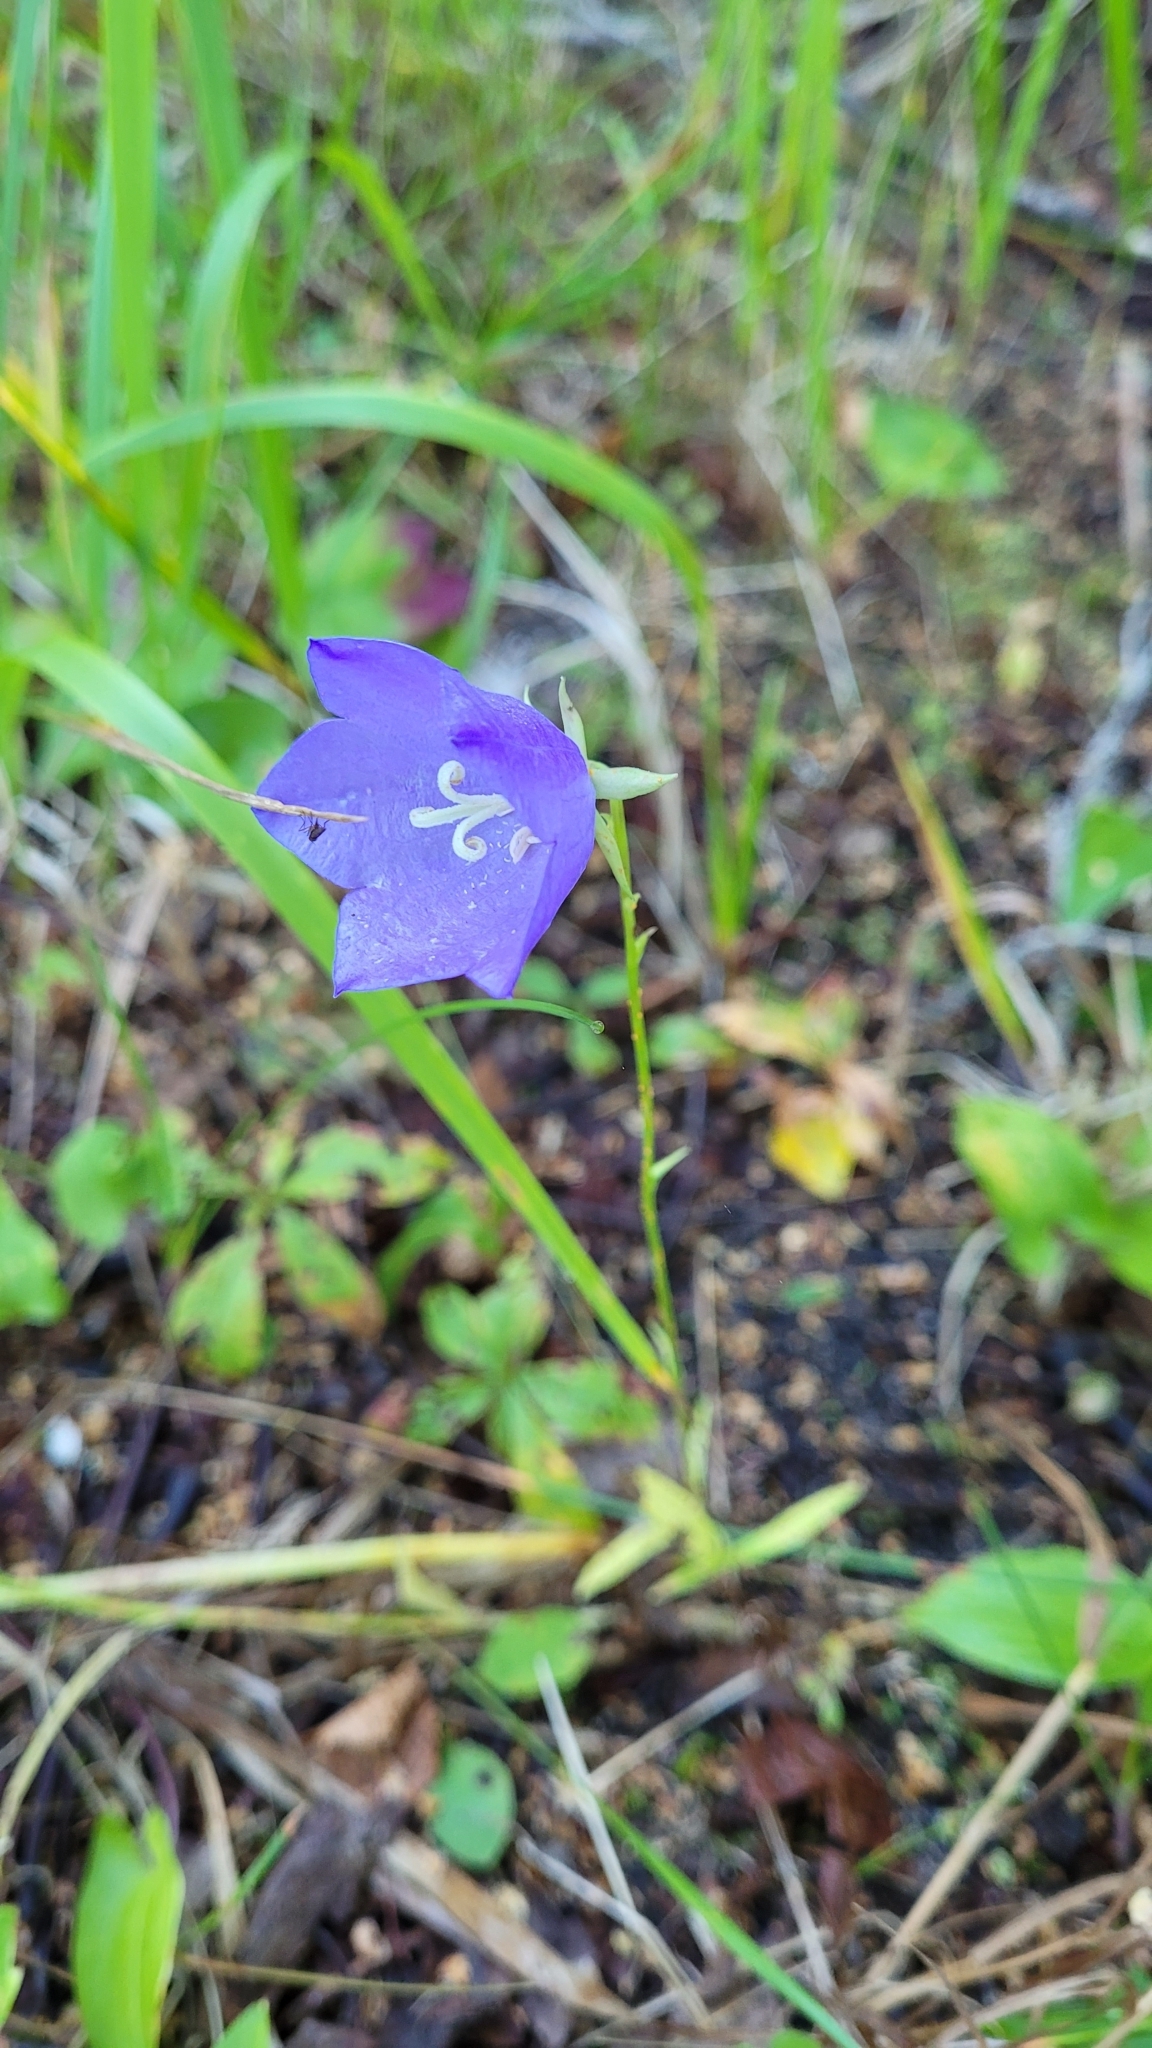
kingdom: Plantae
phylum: Tracheophyta
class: Magnoliopsida
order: Asterales
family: Campanulaceae
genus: Campanula
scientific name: Campanula persicifolia
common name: Peach-leaved bellflower
